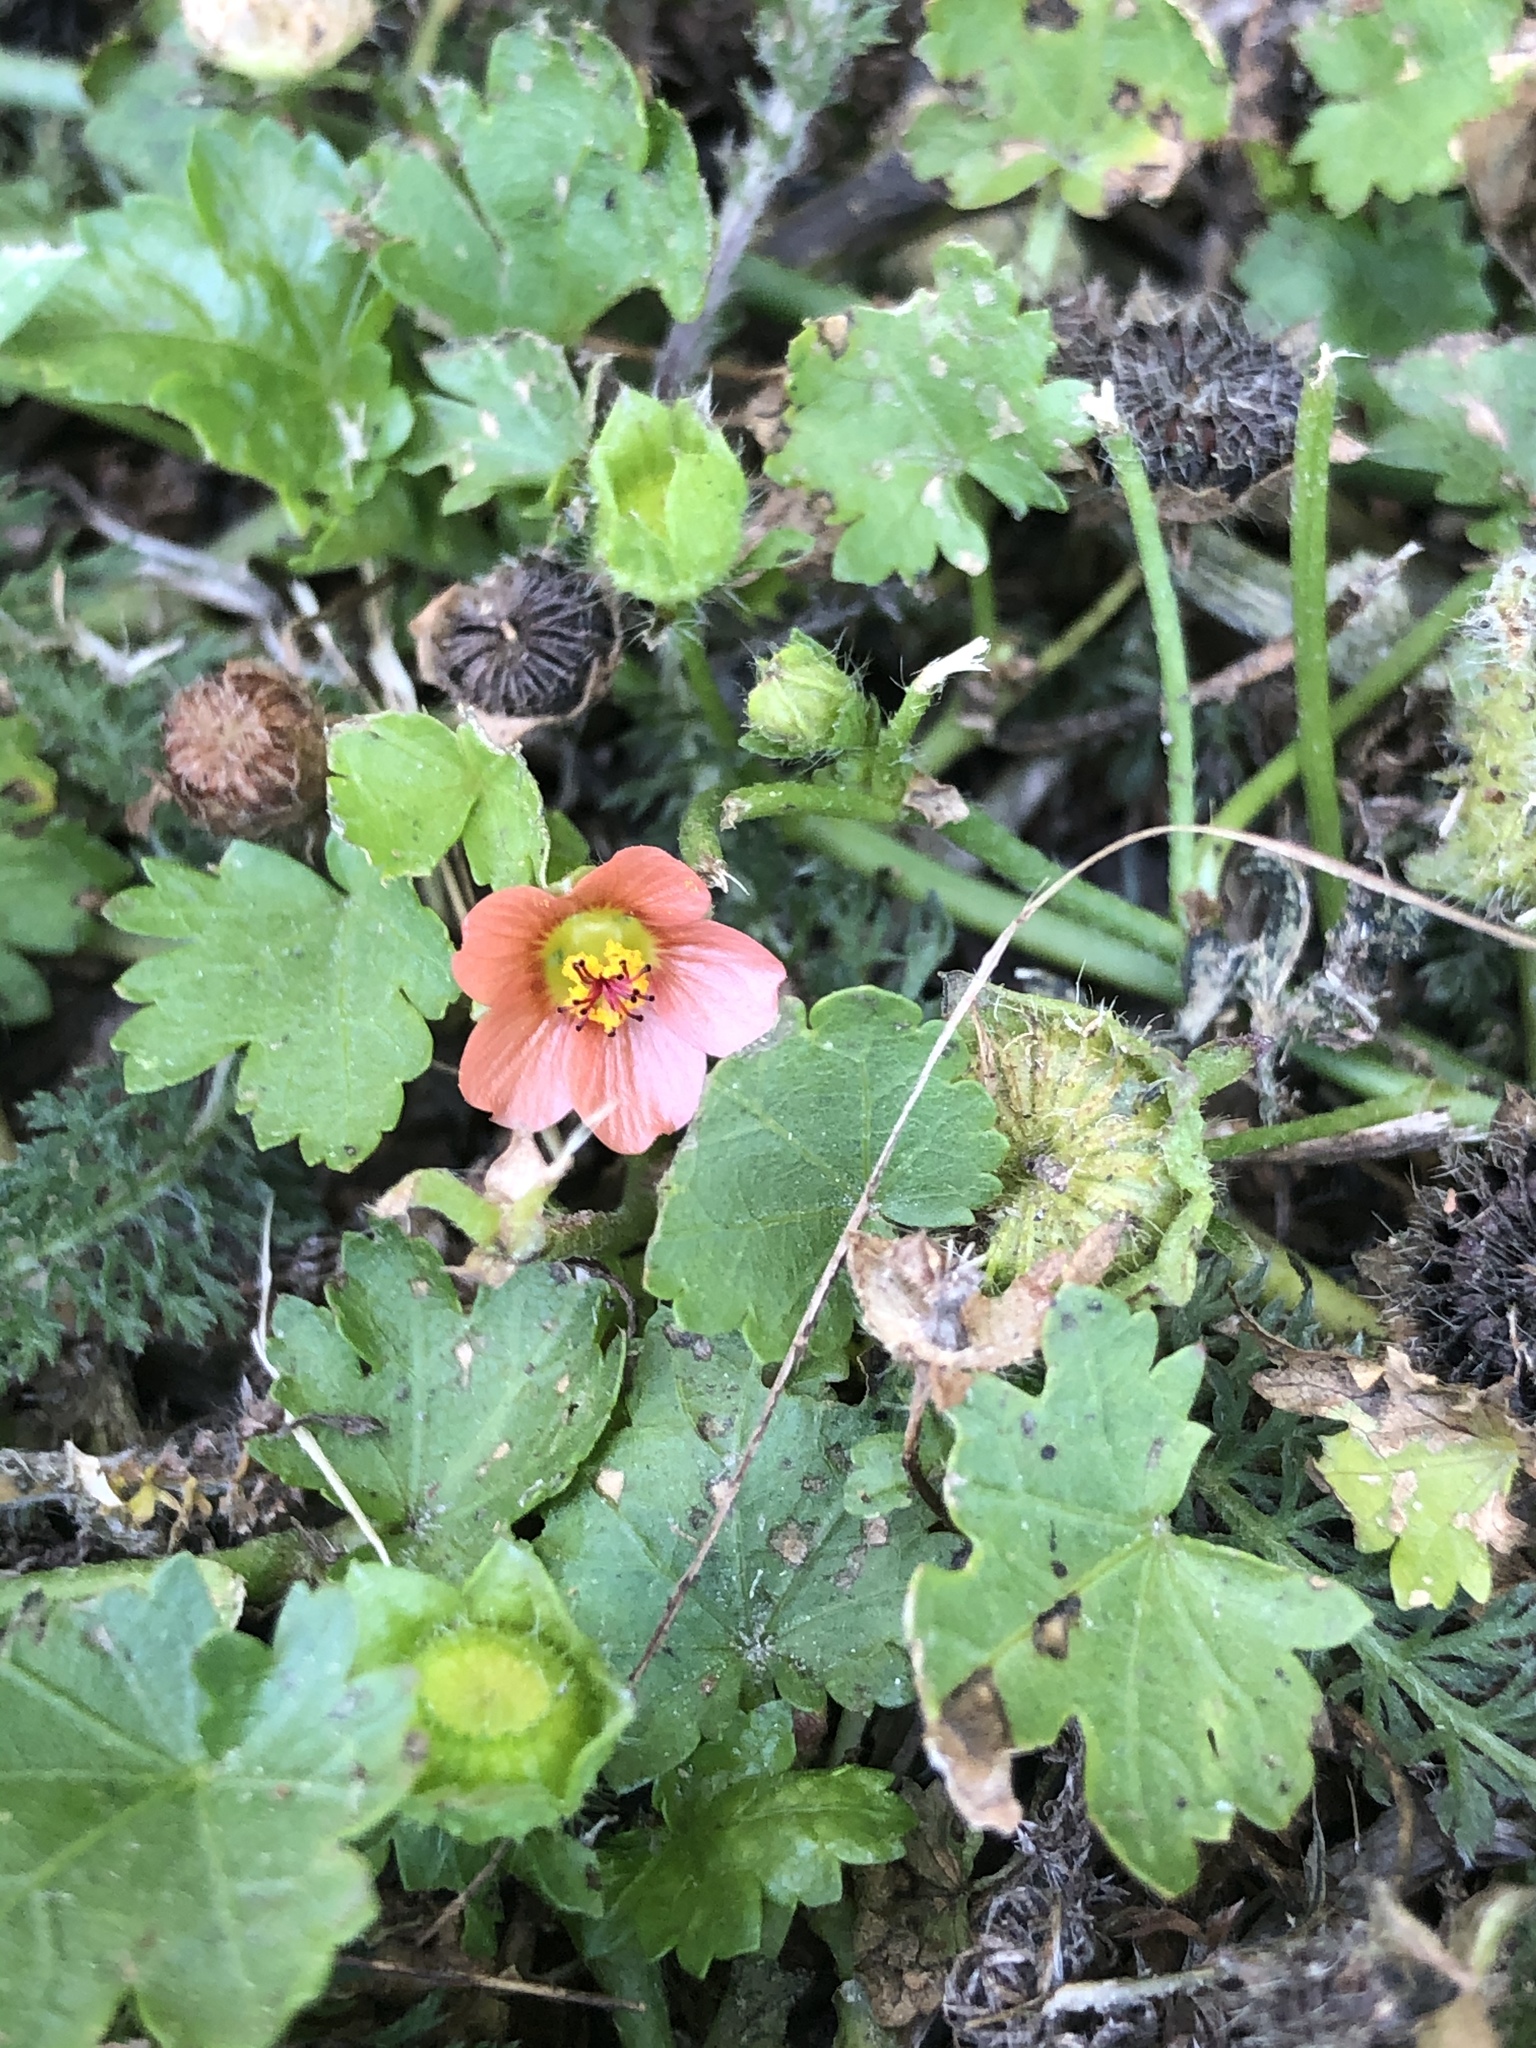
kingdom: Plantae
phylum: Tracheophyta
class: Magnoliopsida
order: Malvales
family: Malvaceae
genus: Modiola
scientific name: Modiola caroliniana
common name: Carolina bristlemallow
